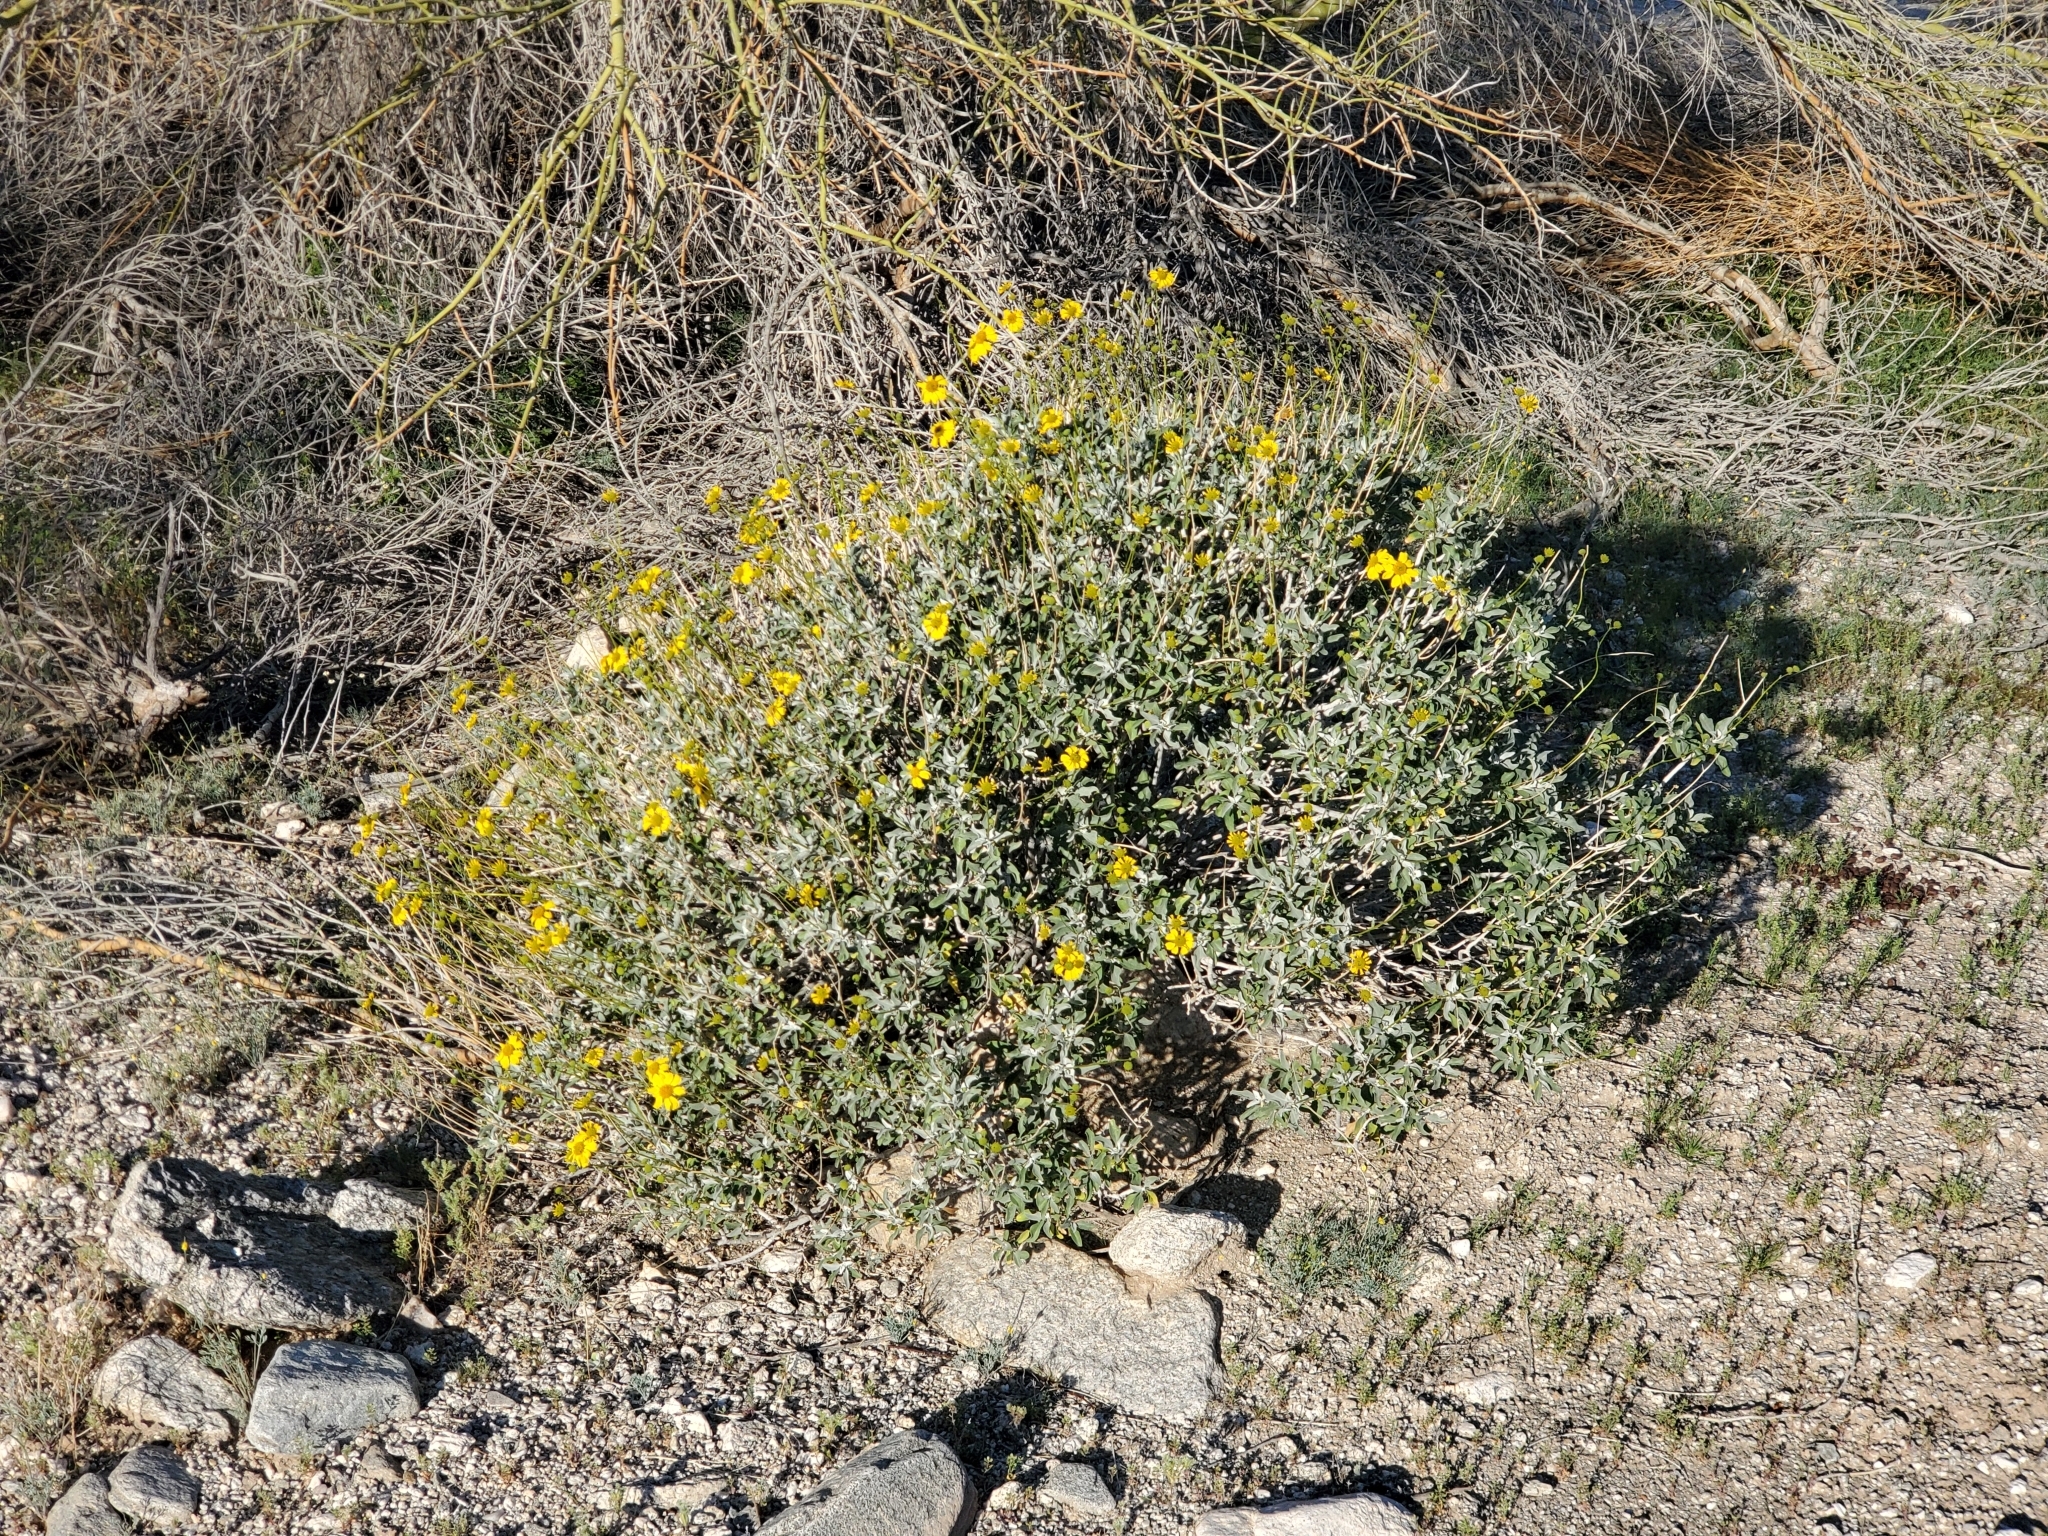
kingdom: Plantae
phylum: Tracheophyta
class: Magnoliopsida
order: Asterales
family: Asteraceae
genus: Encelia
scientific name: Encelia farinosa
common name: Brittlebush
